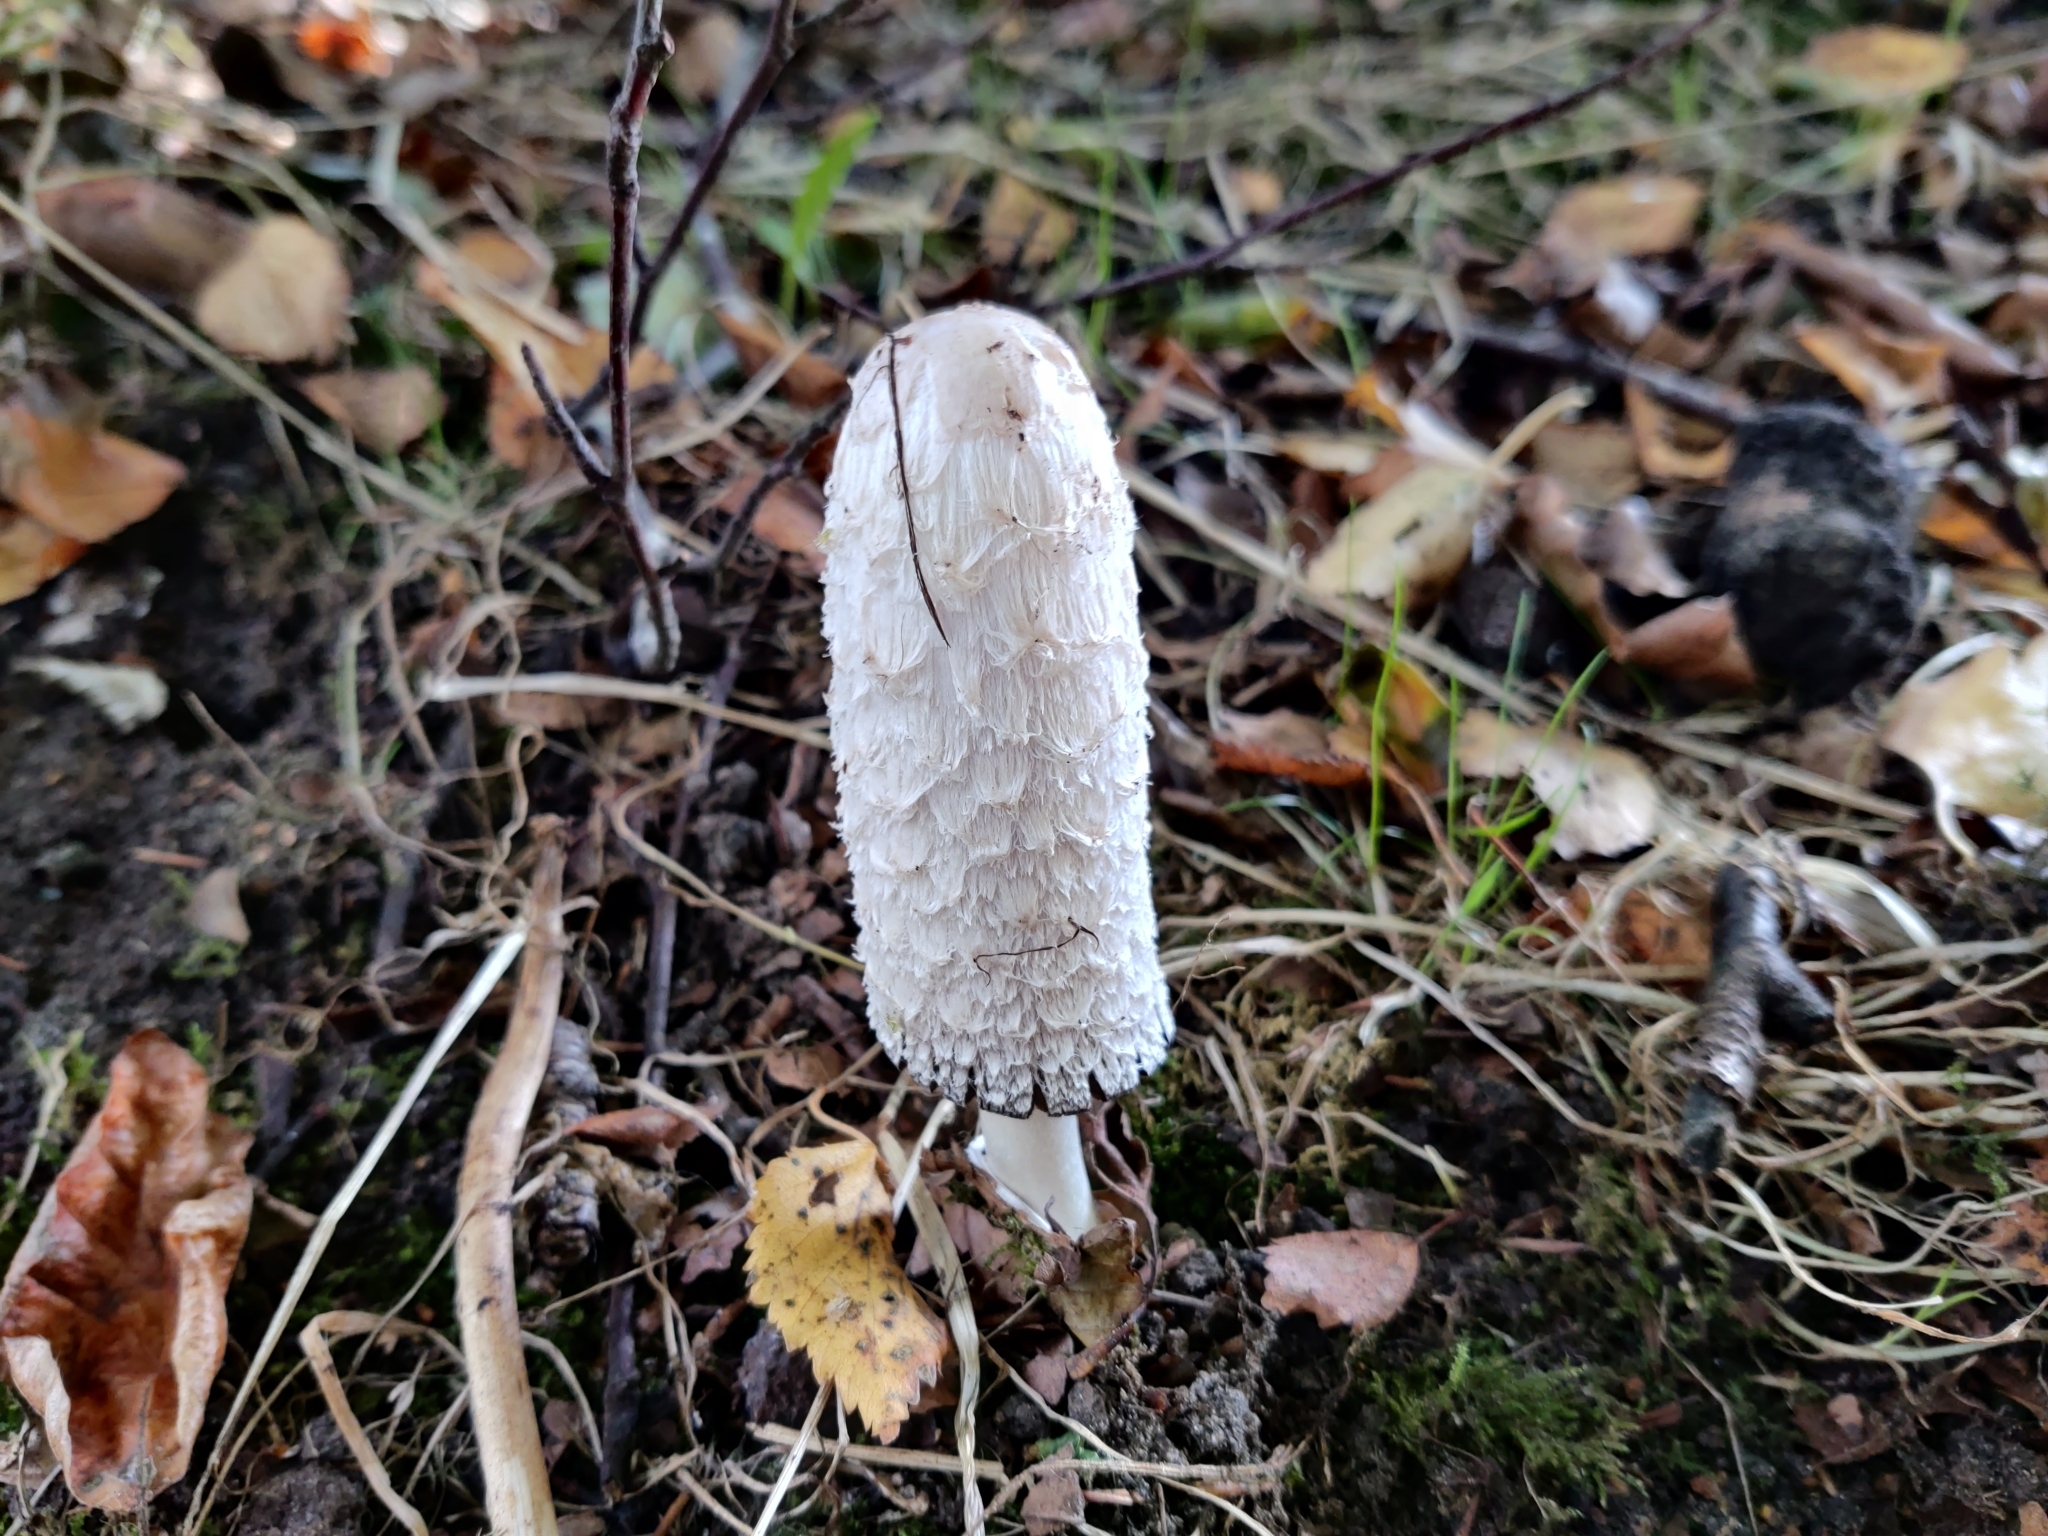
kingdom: Fungi
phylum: Basidiomycota
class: Agaricomycetes
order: Agaricales
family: Agaricaceae
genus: Coprinus
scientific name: Coprinus comatus
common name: Lawyer's wig
